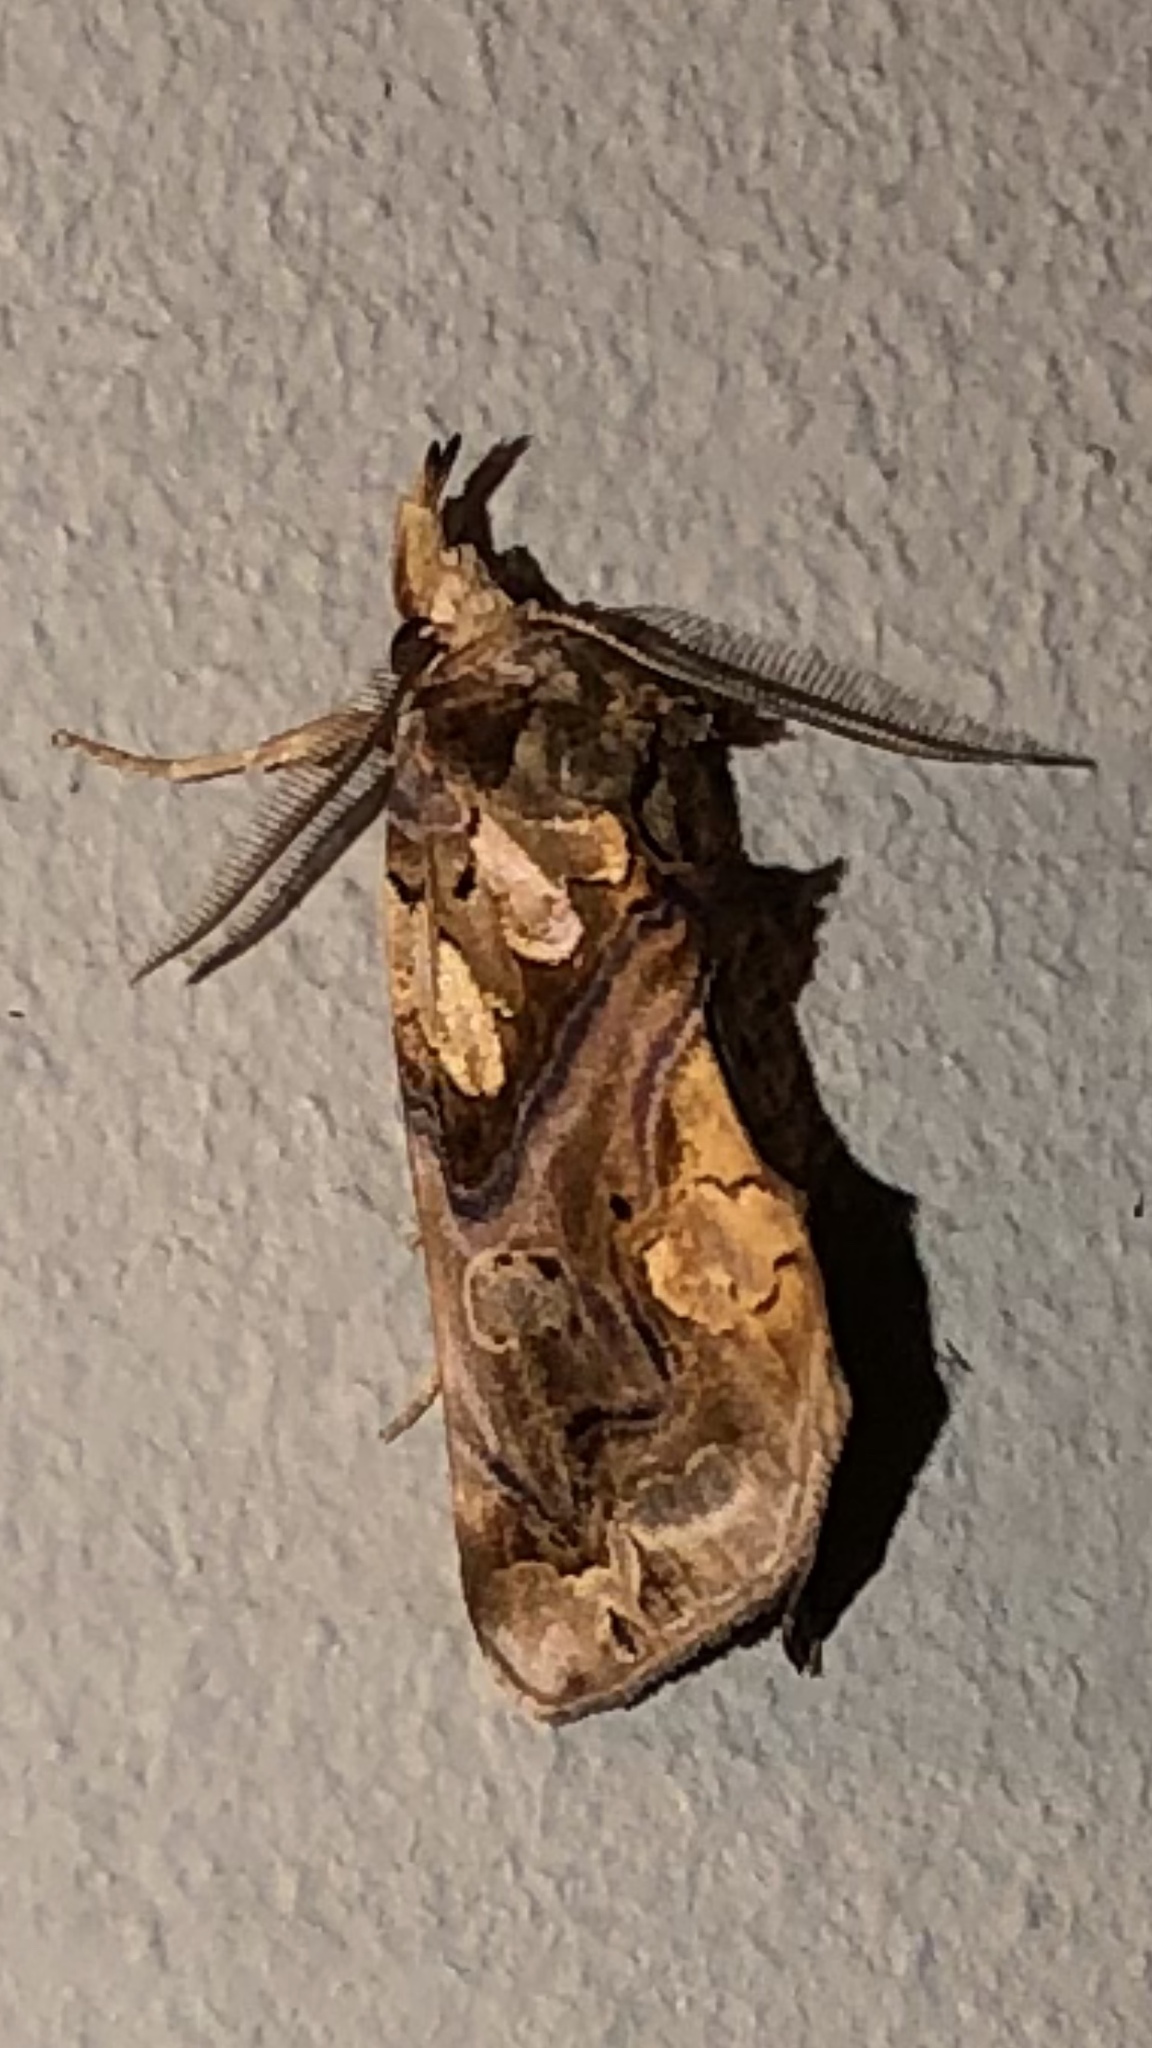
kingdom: Animalia
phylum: Arthropoda
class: Insecta
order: Lepidoptera
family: Erebidae
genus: Plusiodonta
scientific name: Plusiodonta compressipalpis
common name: Moonseed moth
